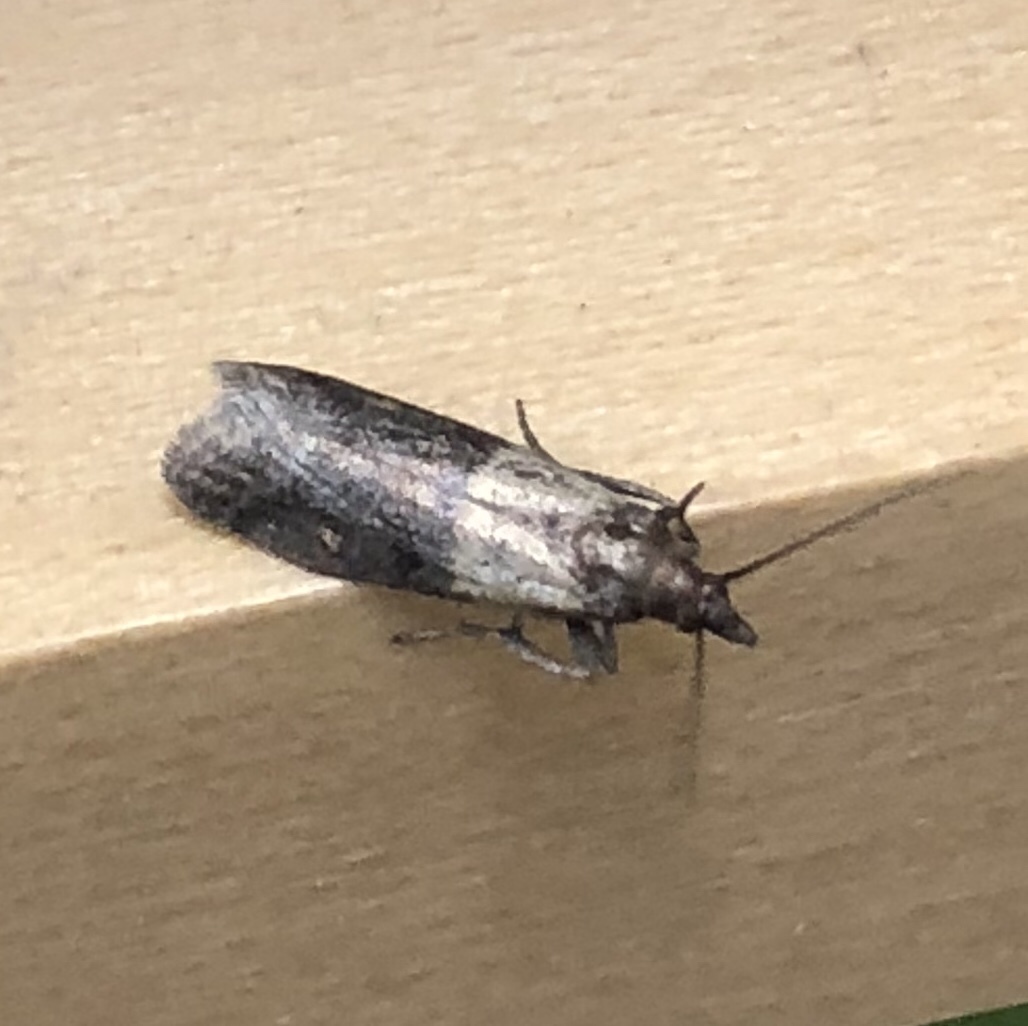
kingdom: Animalia
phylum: Arthropoda
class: Insecta
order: Lepidoptera
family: Pyralidae
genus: Plodia
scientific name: Plodia interpunctella
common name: Indian meal moth
